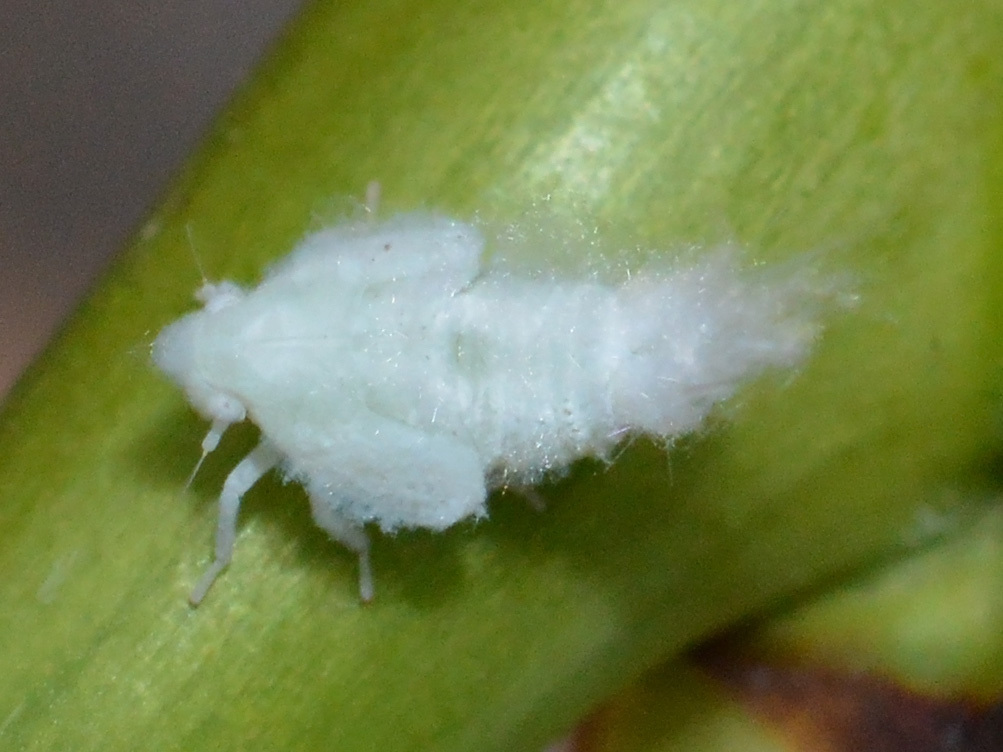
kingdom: Animalia
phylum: Arthropoda
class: Insecta
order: Hemiptera
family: Flatidae
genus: Metcalfa
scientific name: Metcalfa pruinosa
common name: Citrus flatid planthopper
